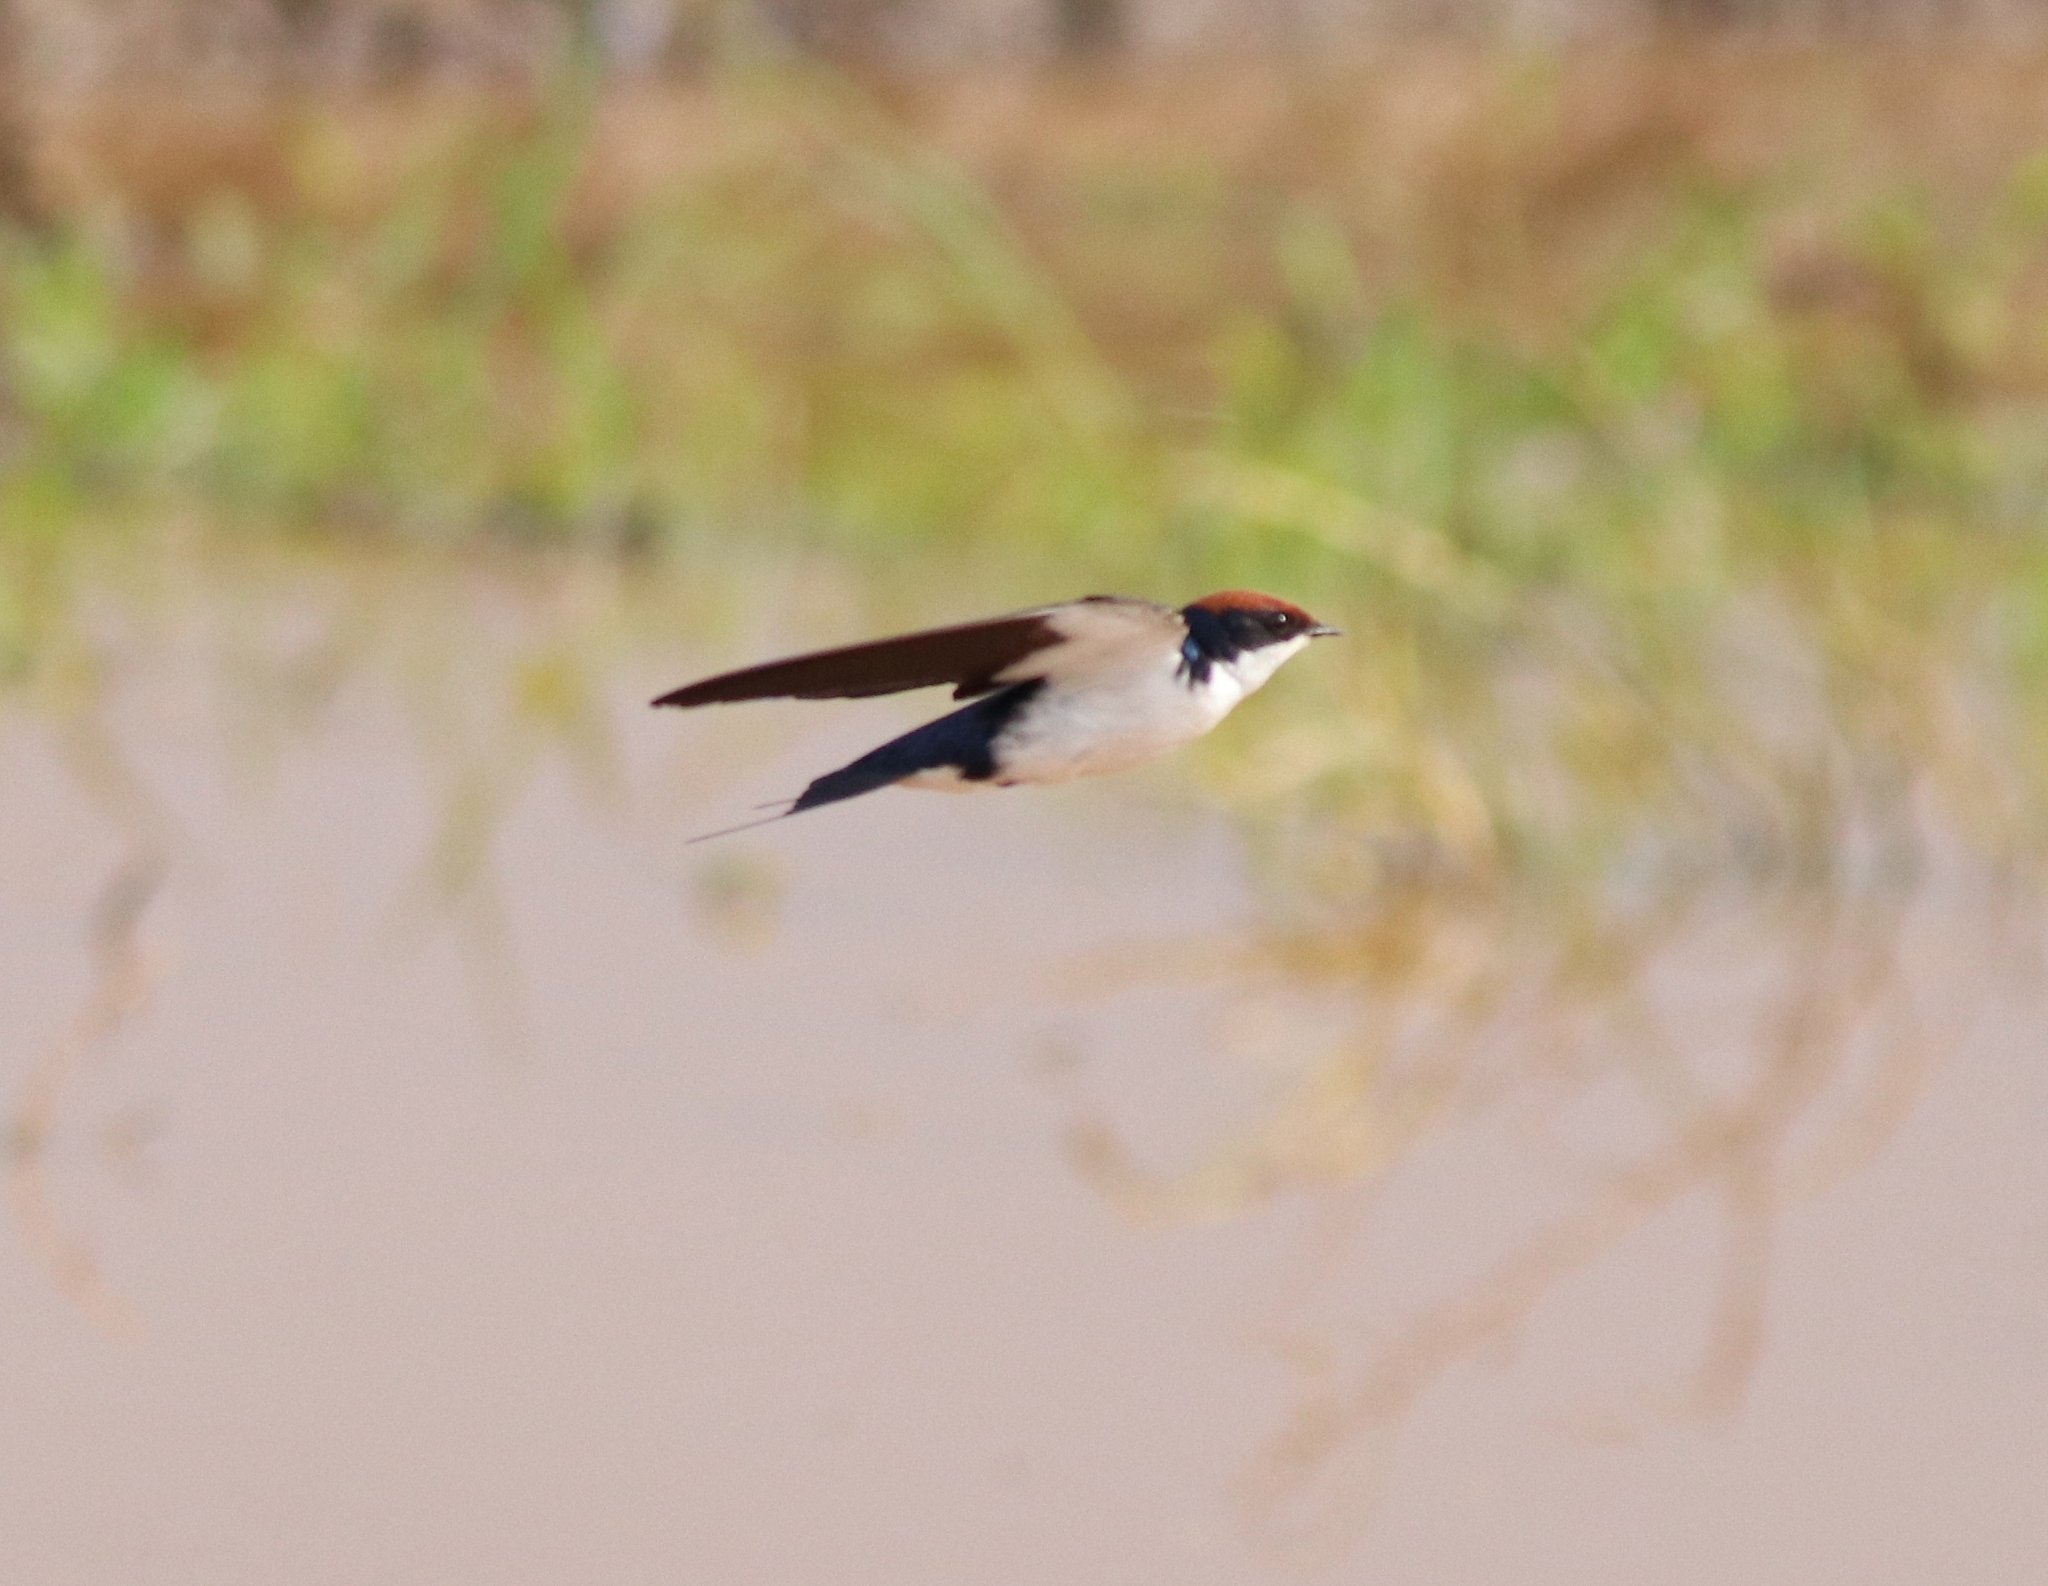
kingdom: Animalia
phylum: Chordata
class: Aves
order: Passeriformes
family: Hirundinidae
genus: Hirundo
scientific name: Hirundo smithii
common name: Wire-tailed swallow
